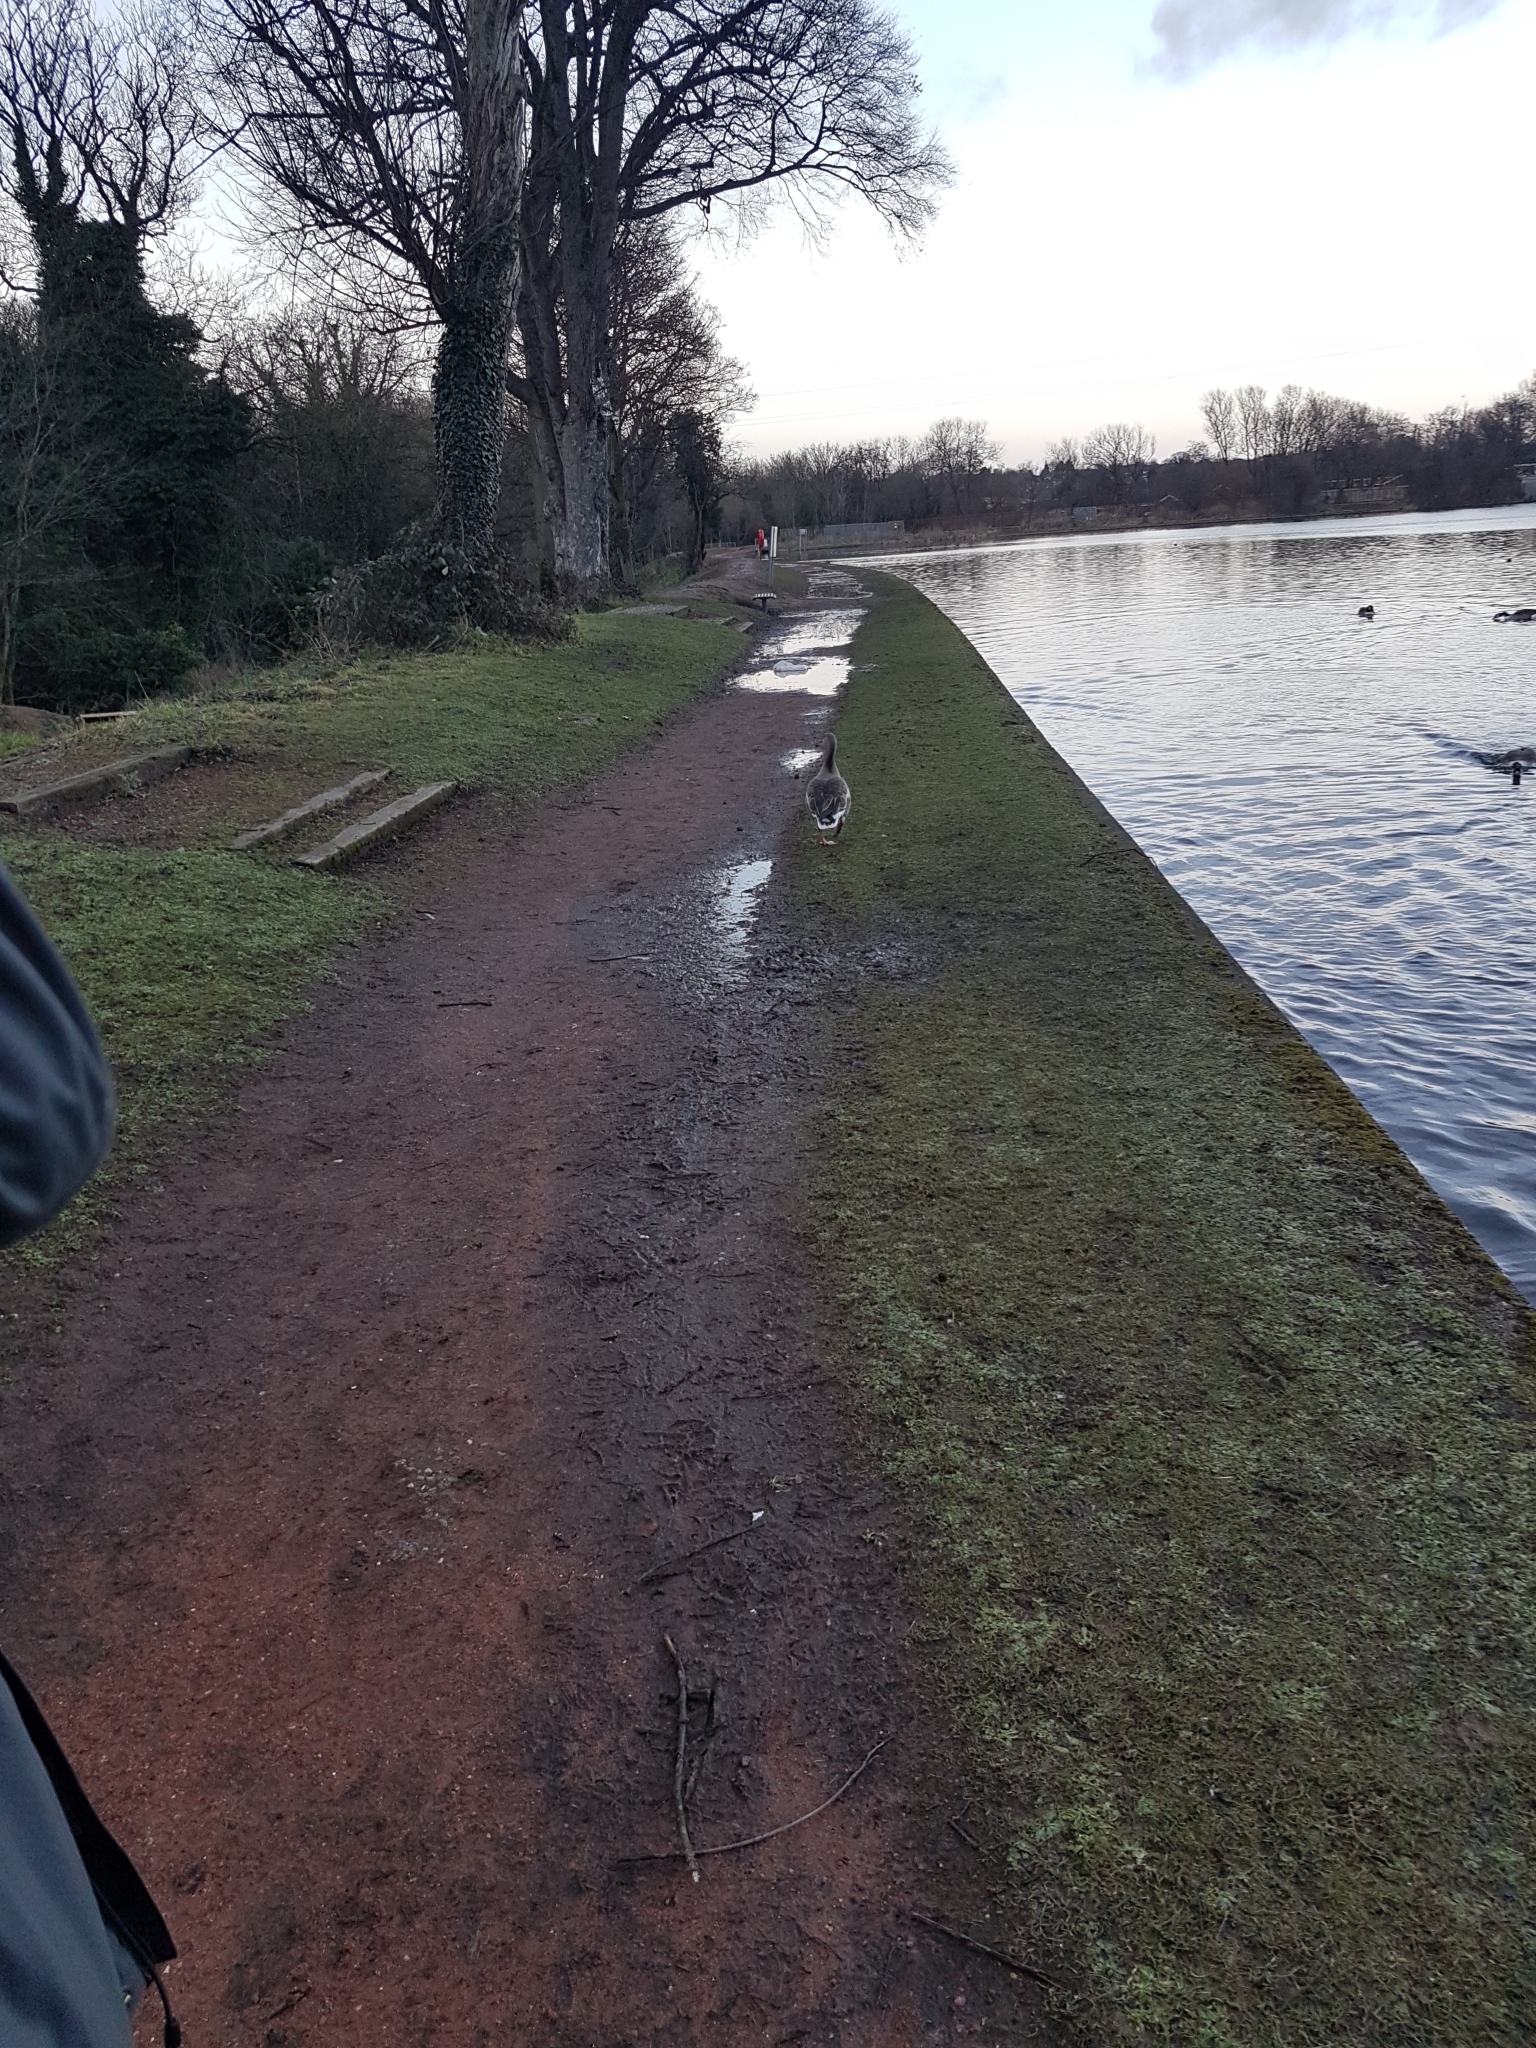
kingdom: Animalia
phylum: Chordata
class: Aves
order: Anseriformes
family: Anatidae
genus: Anser
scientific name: Anser anser
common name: Greylag goose
